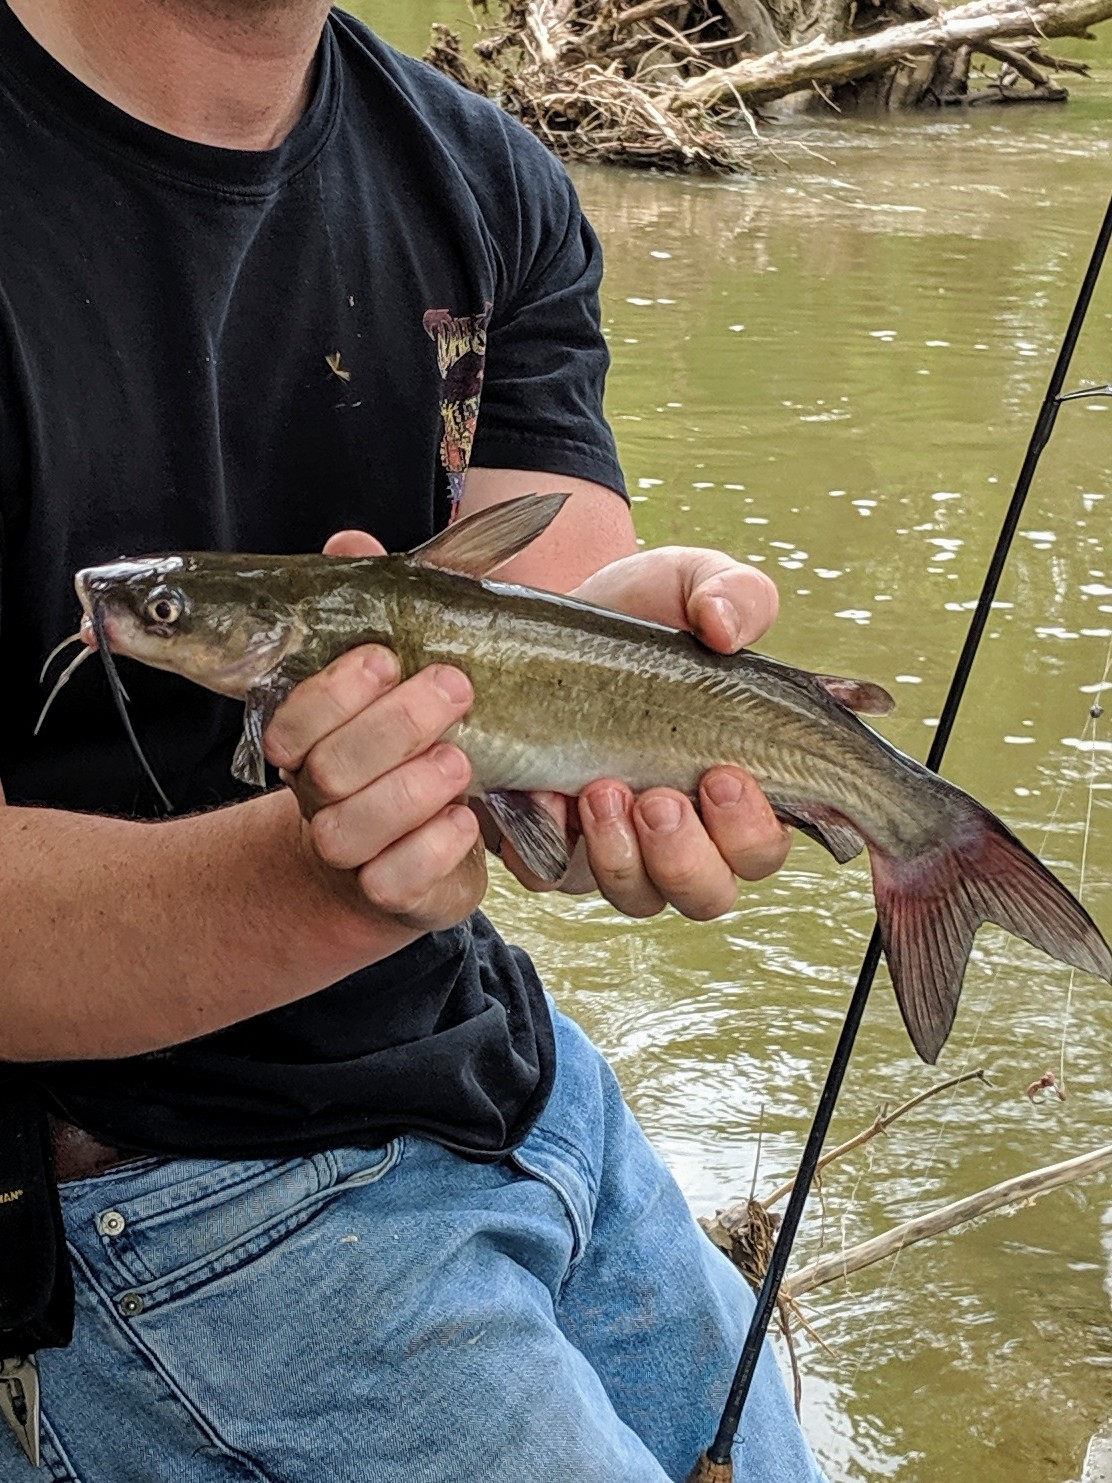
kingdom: Animalia
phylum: Chordata
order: Siluriformes
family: Ictaluridae
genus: Ictalurus
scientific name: Ictalurus punctatus
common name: Channel catfish
